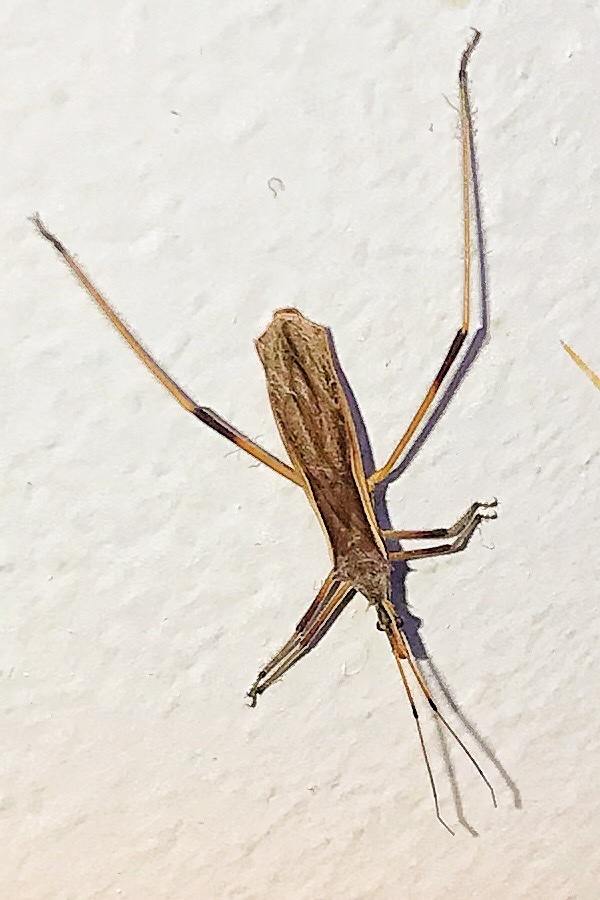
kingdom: Animalia
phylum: Arthropoda
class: Insecta
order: Hemiptera
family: Reduviidae
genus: Thodelmus
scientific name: Thodelmus quinquespinosus
